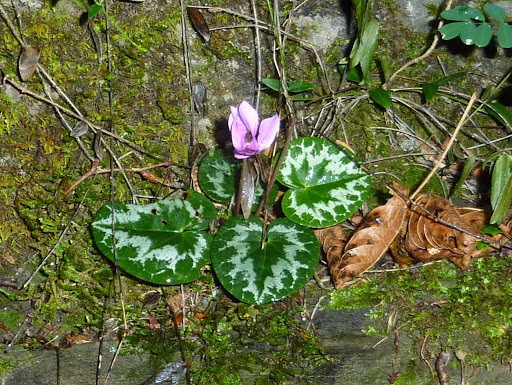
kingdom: Plantae
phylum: Tracheophyta
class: Magnoliopsida
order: Ericales
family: Primulaceae
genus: Cyclamen
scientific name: Cyclamen purpurascens
